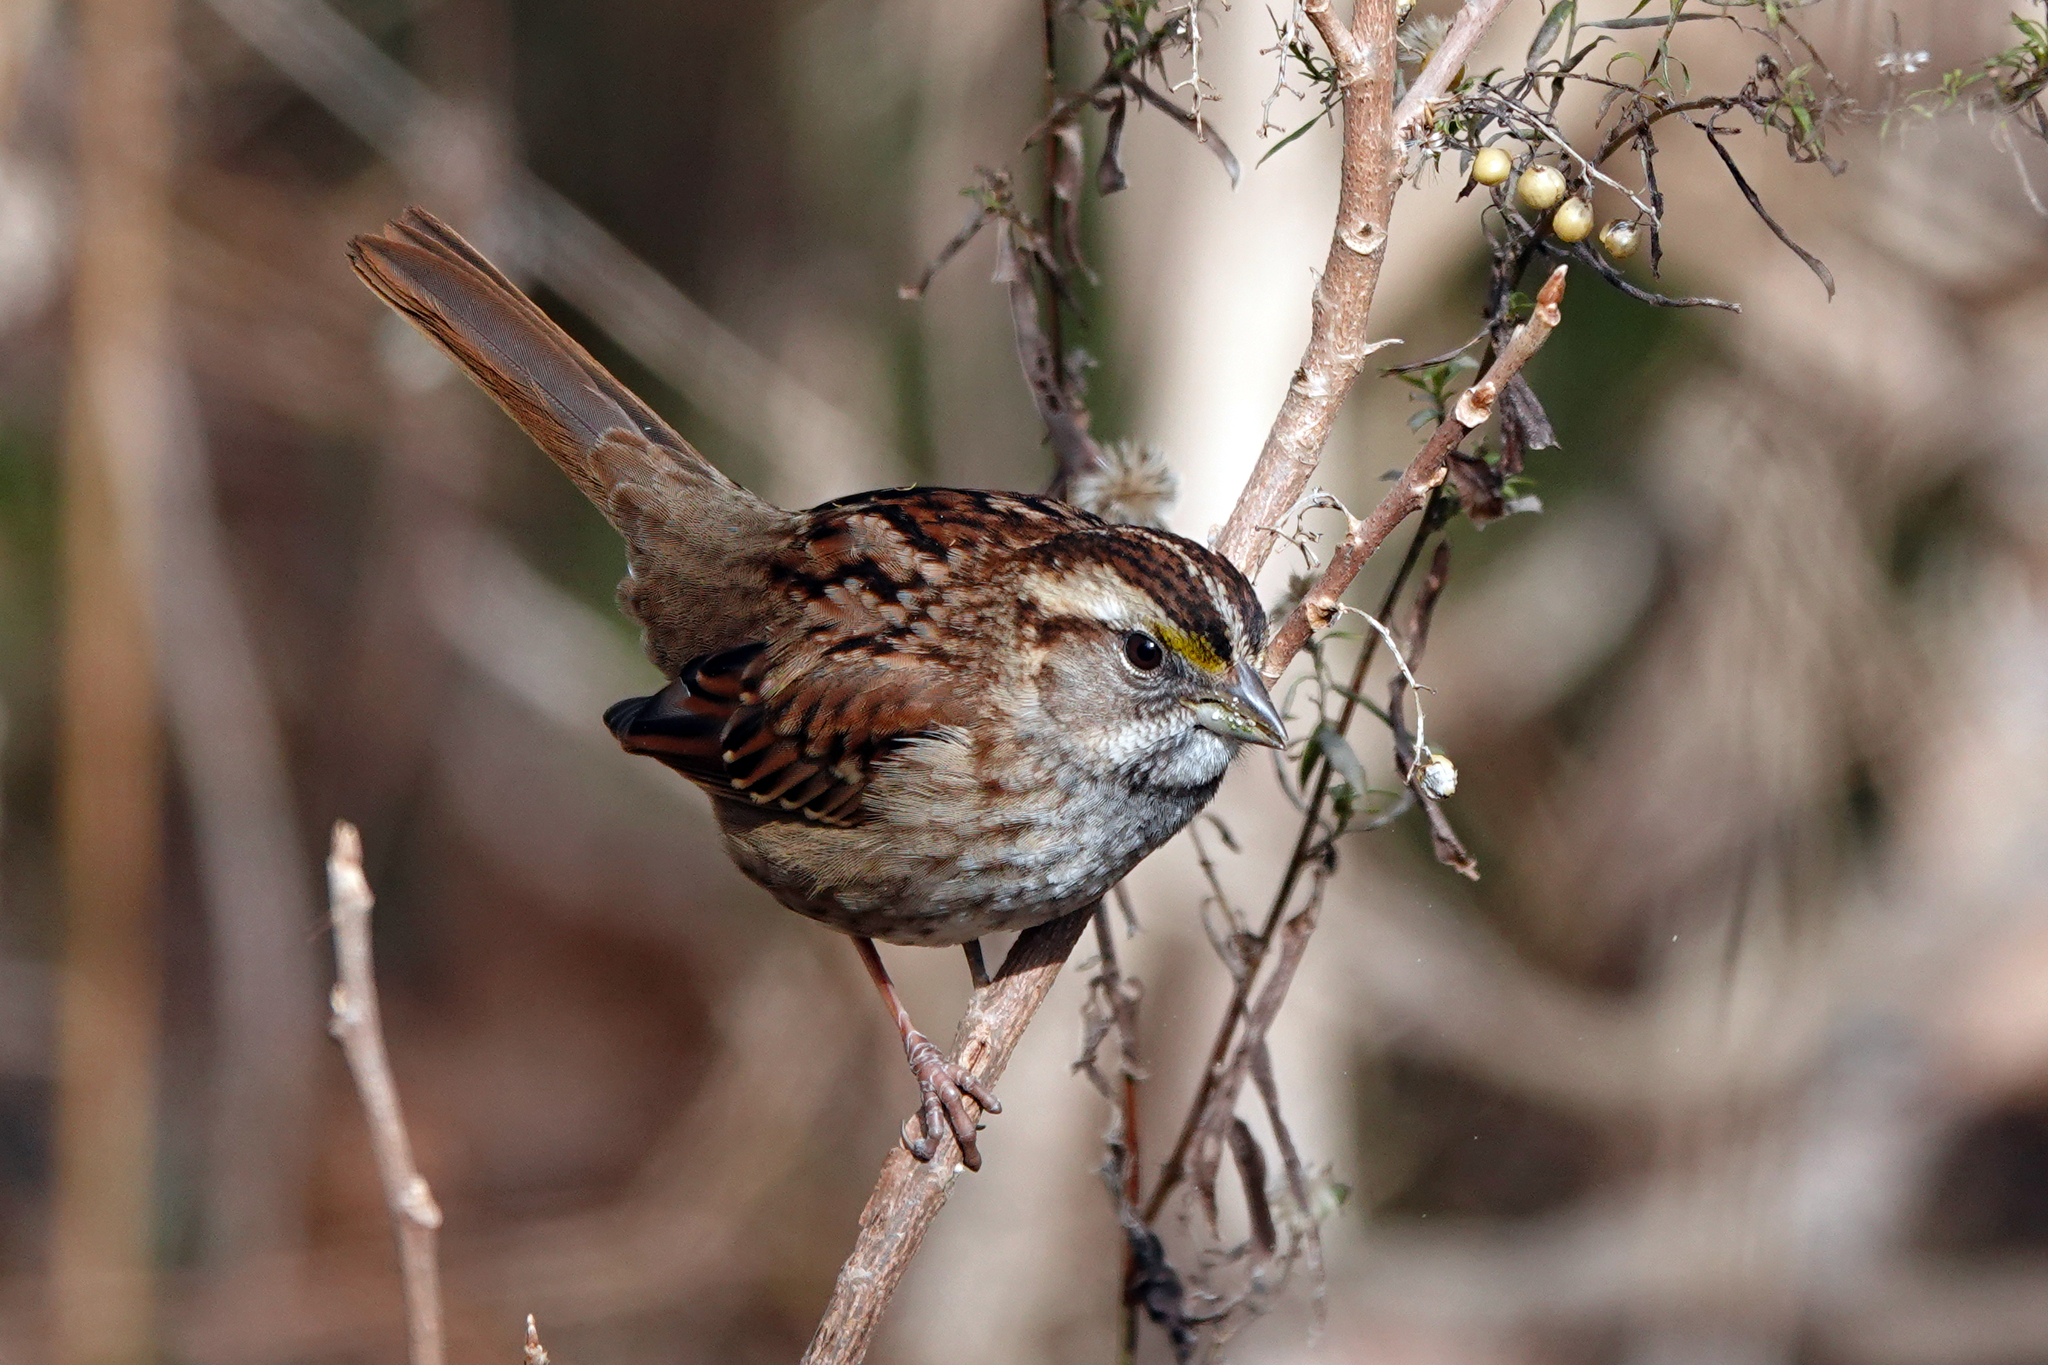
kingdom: Animalia
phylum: Chordata
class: Aves
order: Passeriformes
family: Passerellidae
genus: Zonotrichia
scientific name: Zonotrichia albicollis
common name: White-throated sparrow
